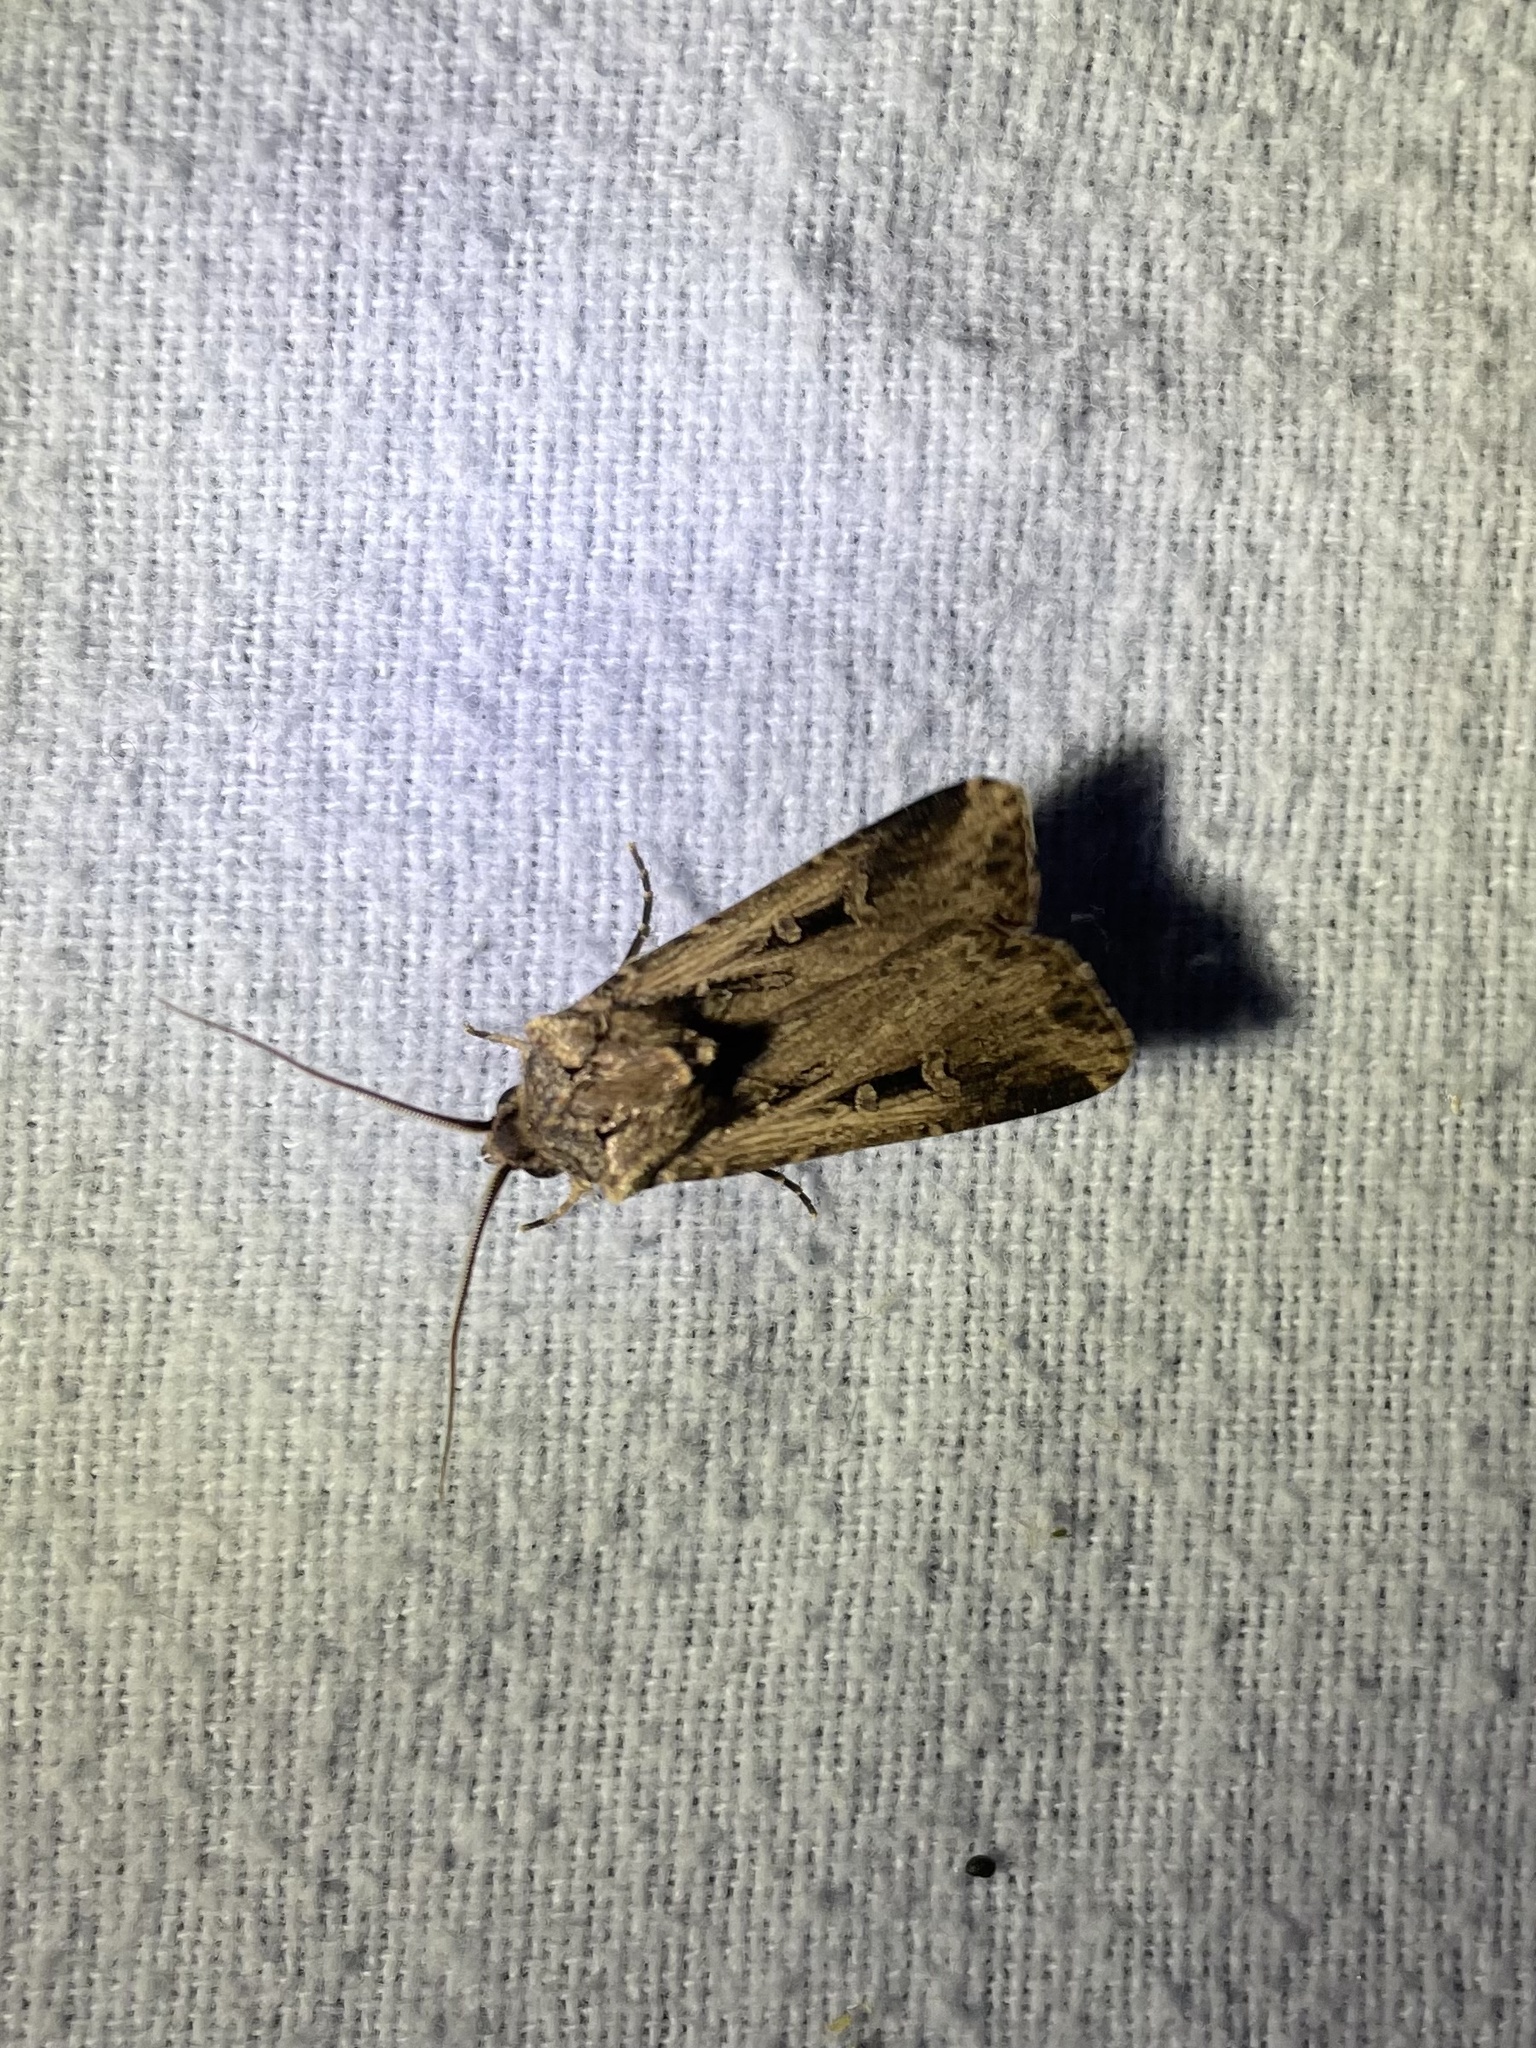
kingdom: Animalia
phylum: Arthropoda
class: Insecta
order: Lepidoptera
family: Noctuidae
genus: Feltia
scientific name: Feltia subterranea
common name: Granulate cutworm
